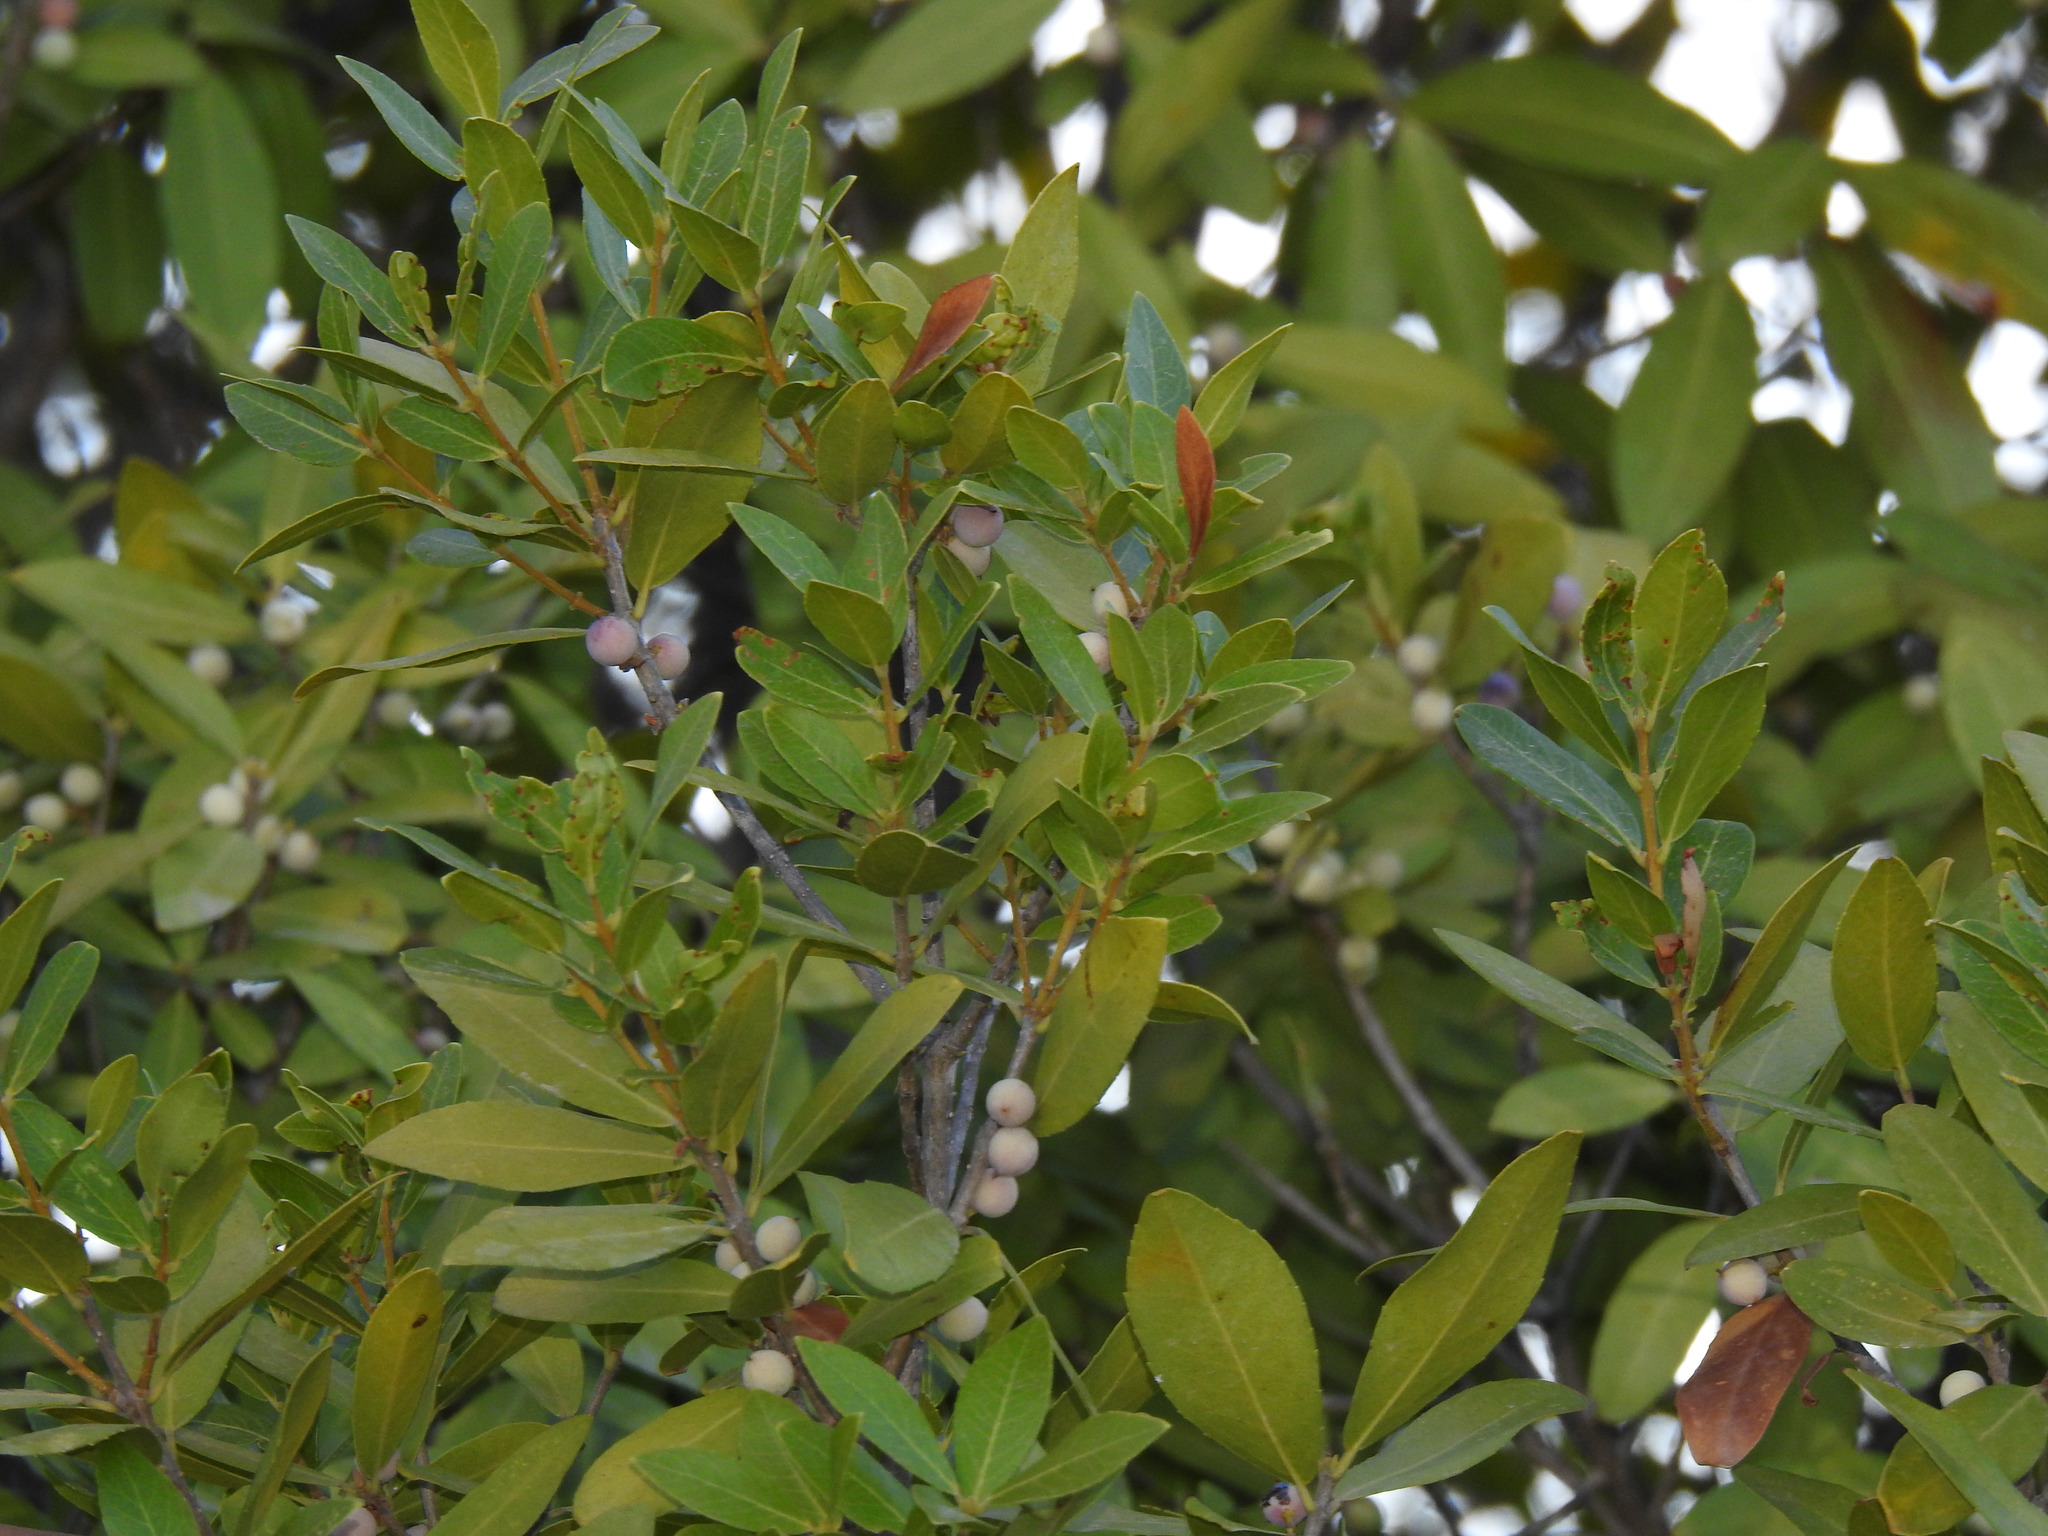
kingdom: Plantae
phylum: Tracheophyta
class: Magnoliopsida
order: Lamiales
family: Oleaceae
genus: Phillyrea
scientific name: Phillyrea latifolia
